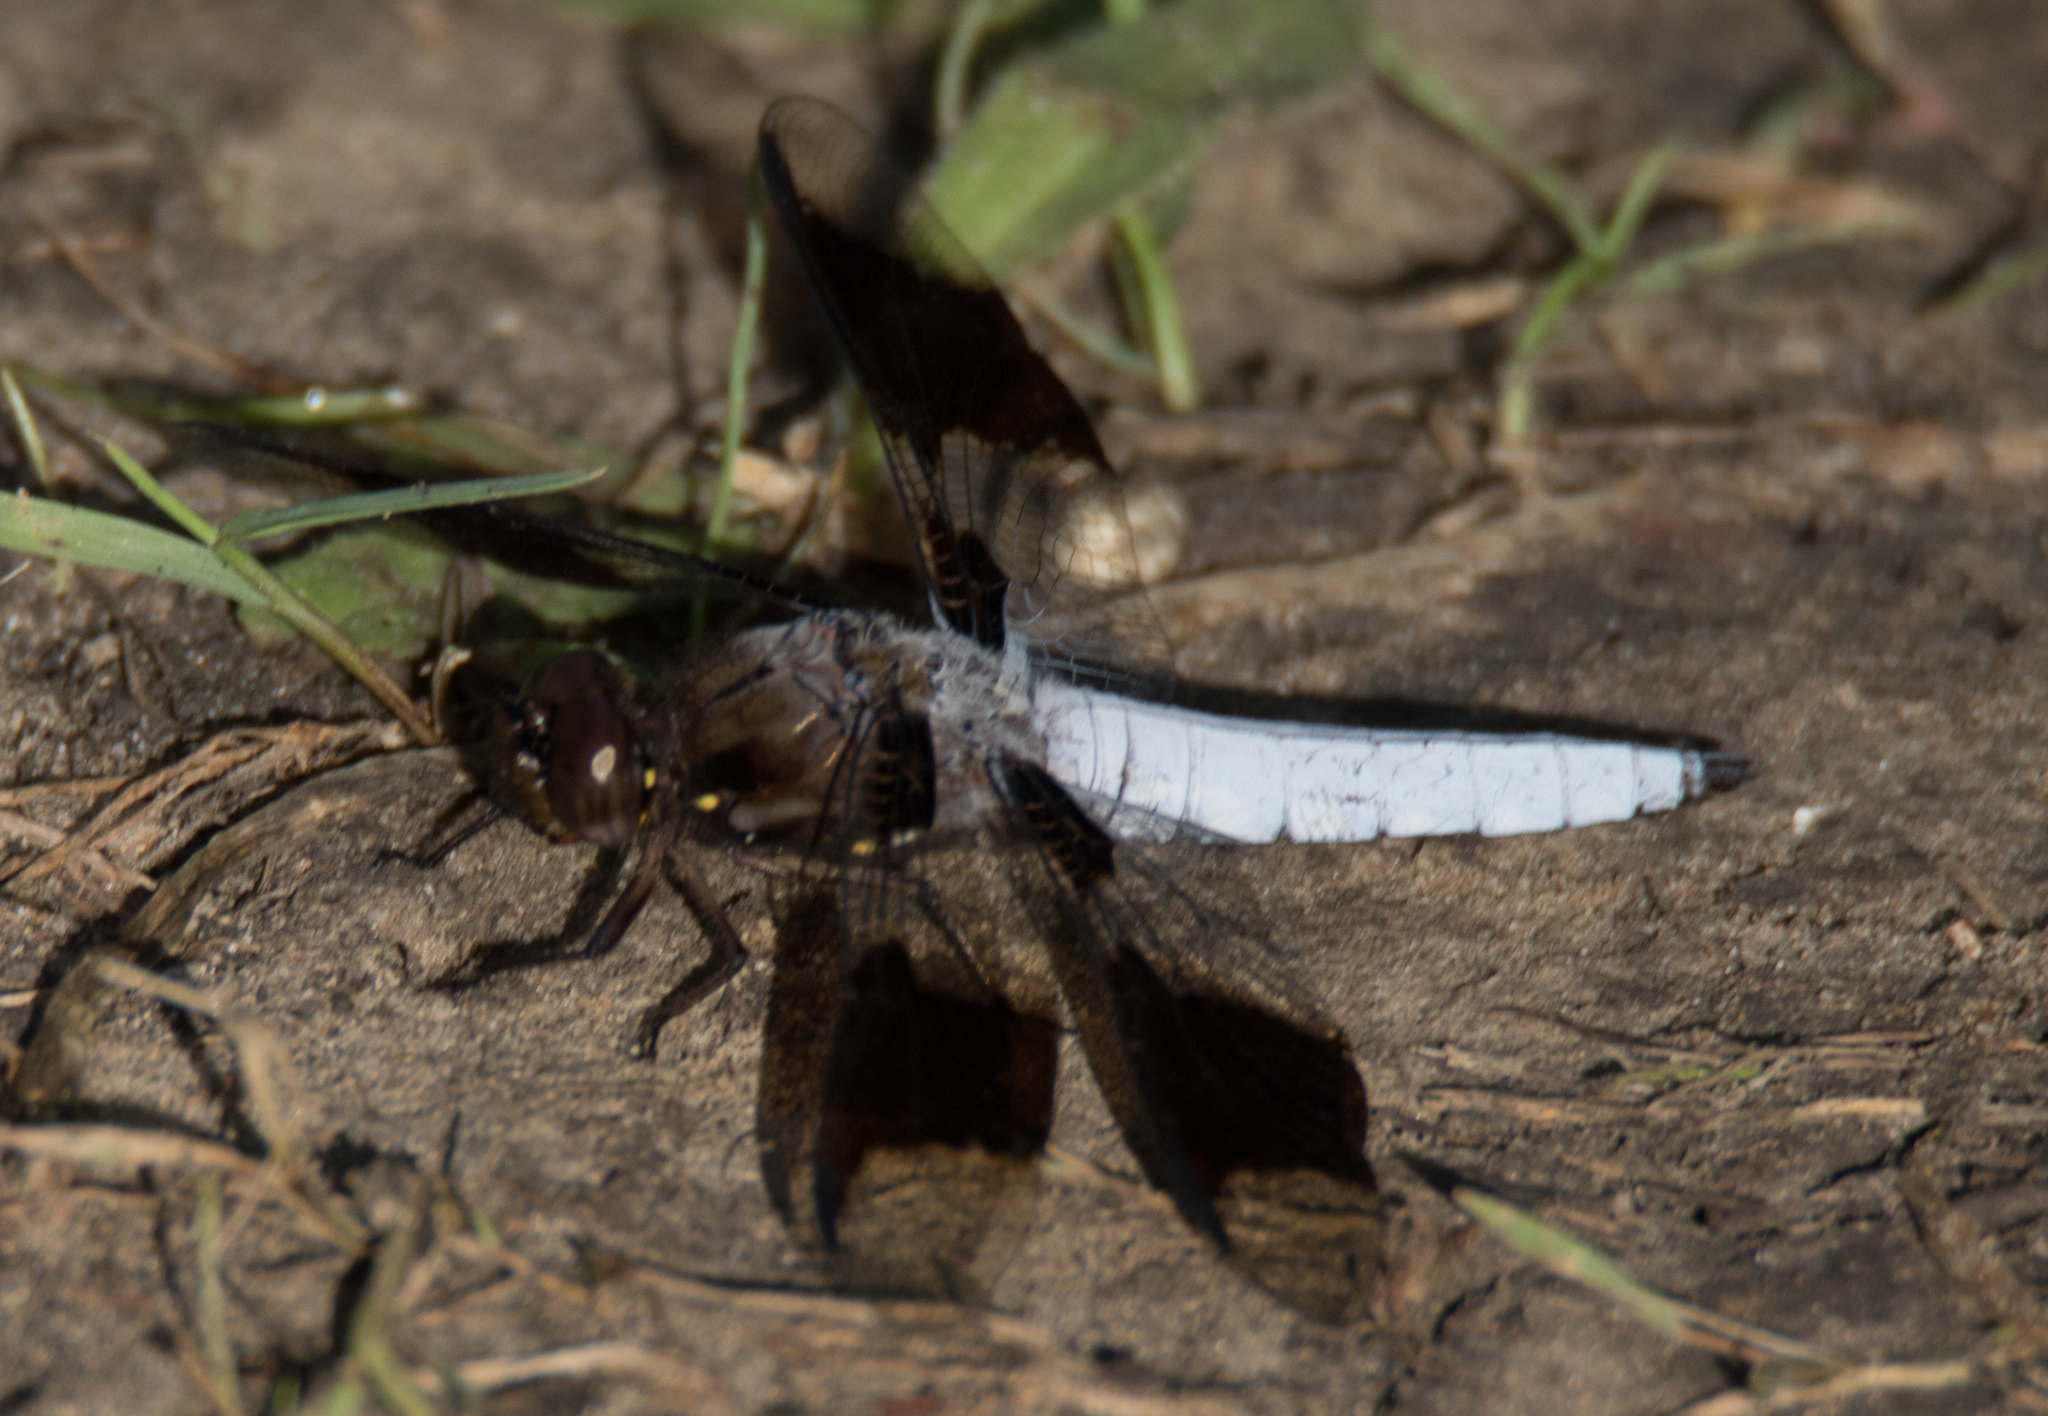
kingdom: Animalia
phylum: Arthropoda
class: Insecta
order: Odonata
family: Libellulidae
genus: Plathemis
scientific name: Plathemis lydia
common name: Common whitetail
